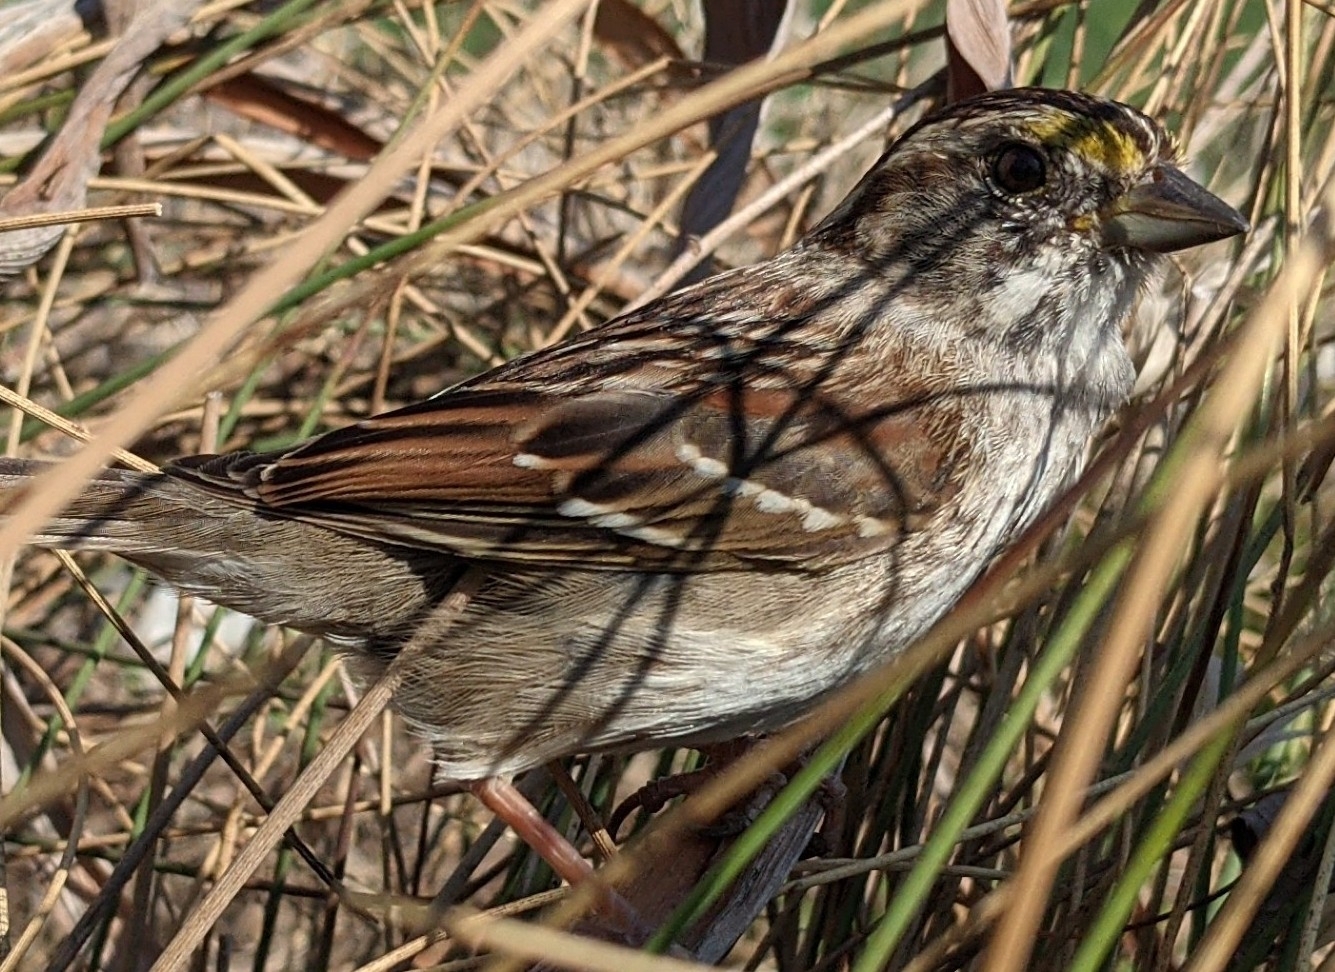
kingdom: Animalia
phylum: Chordata
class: Aves
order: Passeriformes
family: Passerellidae
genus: Zonotrichia
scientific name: Zonotrichia albicollis
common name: White-throated sparrow
